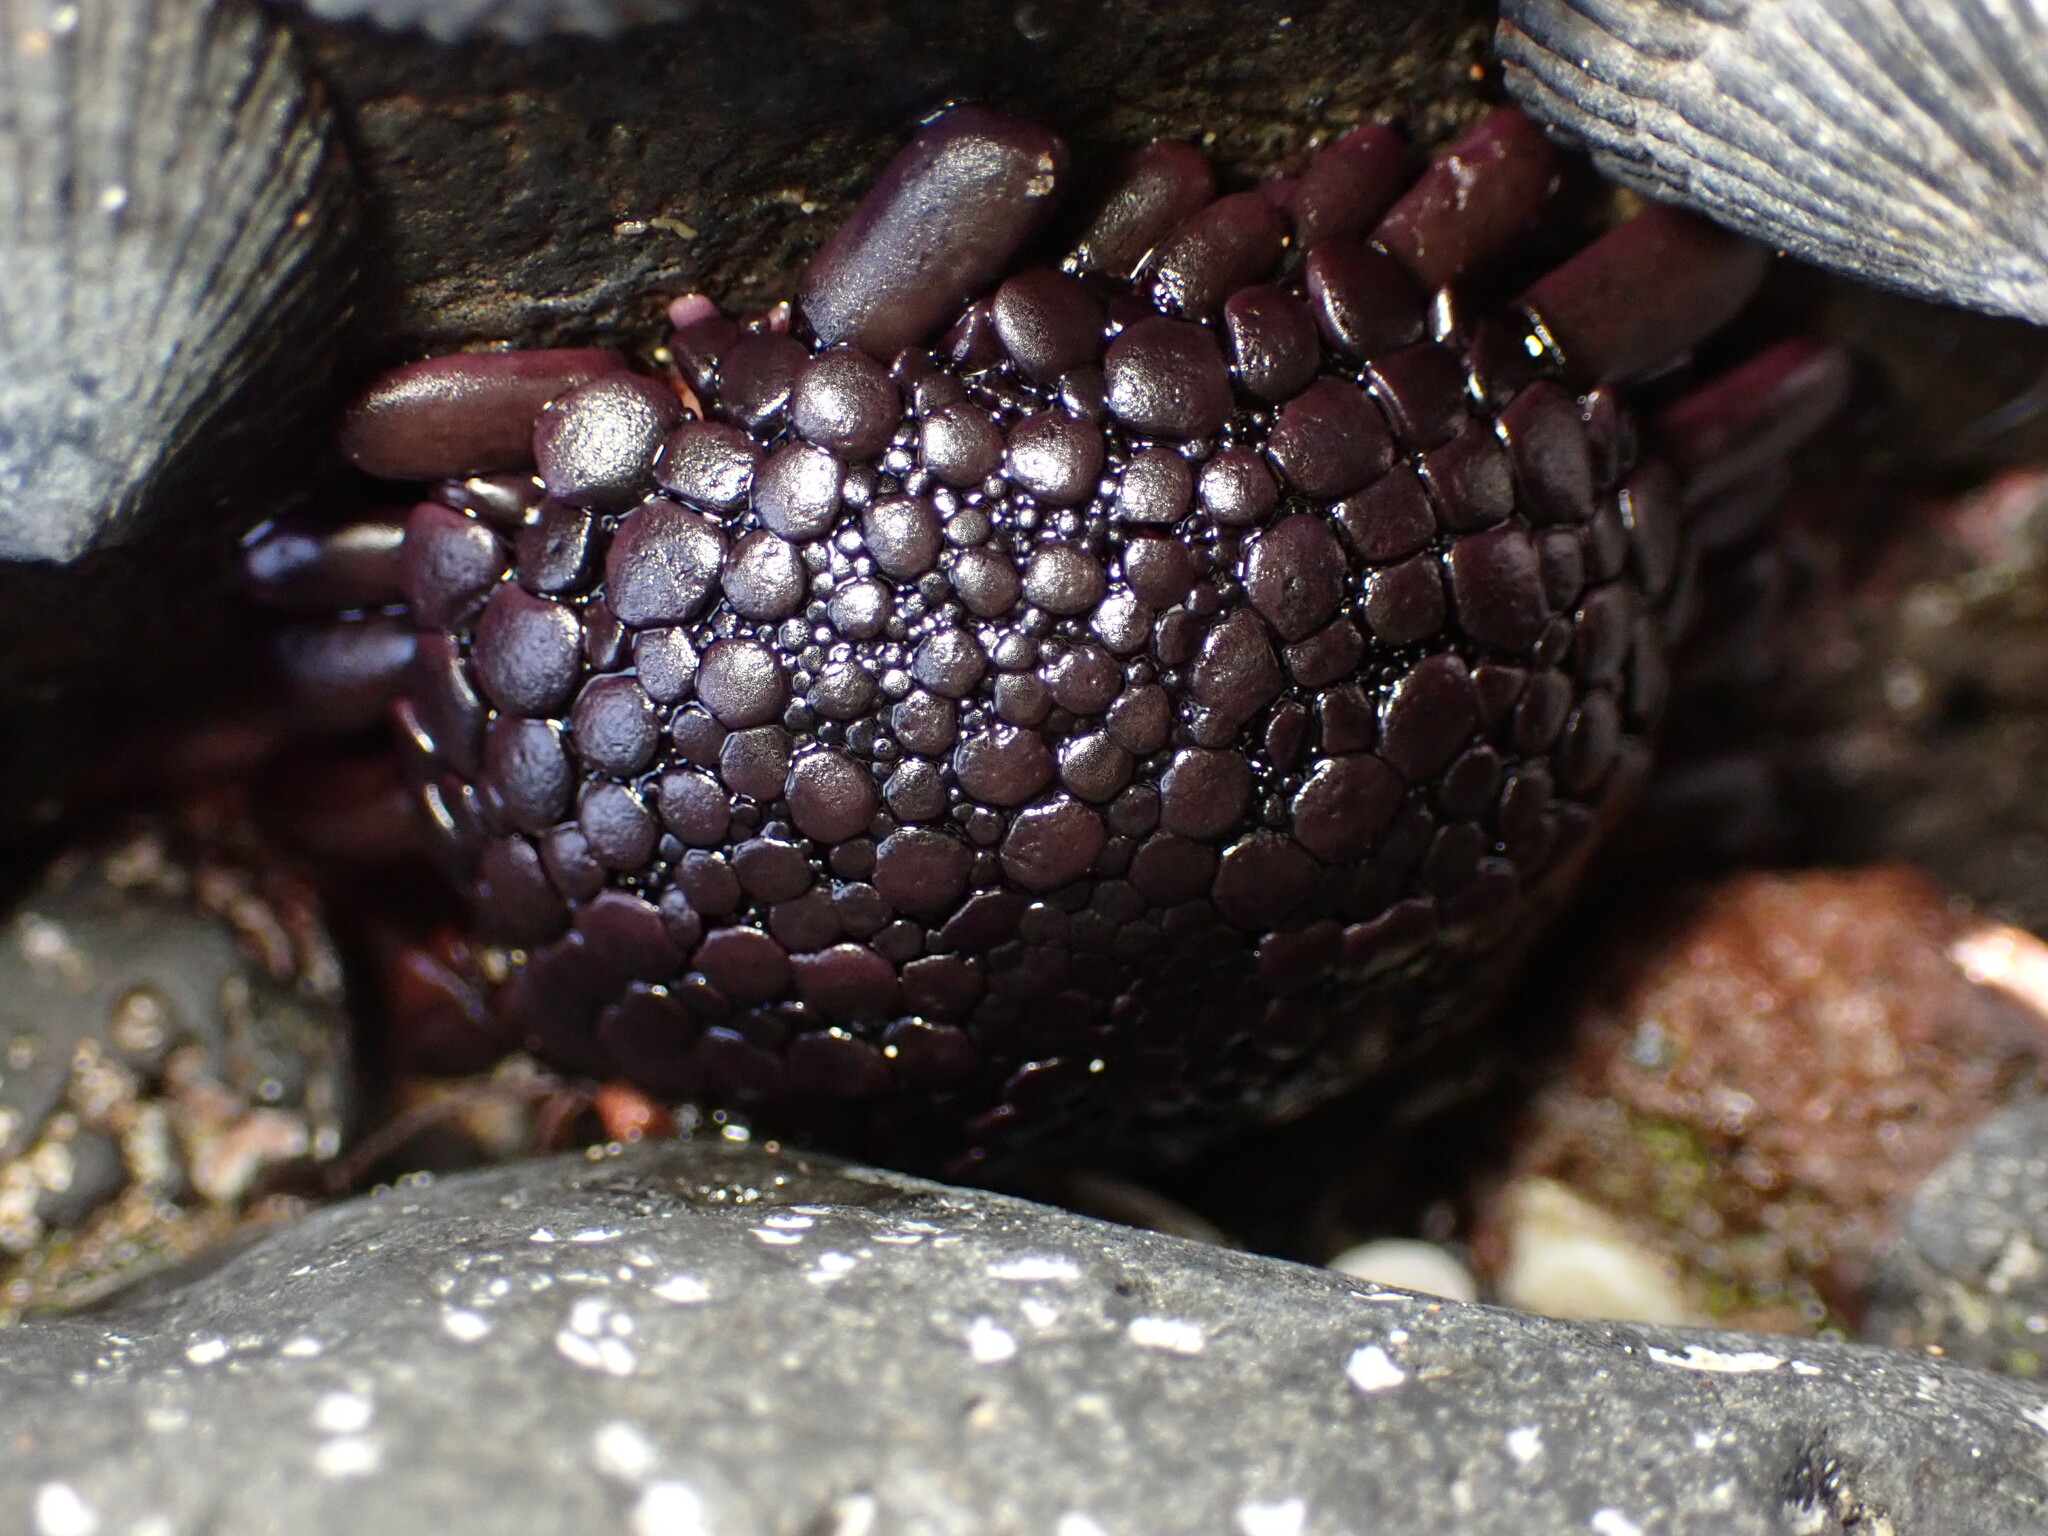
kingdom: Animalia
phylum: Echinodermata
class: Echinoidea
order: Camarodonta
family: Echinometridae
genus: Colobocentrotus
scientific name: Colobocentrotus atratus
